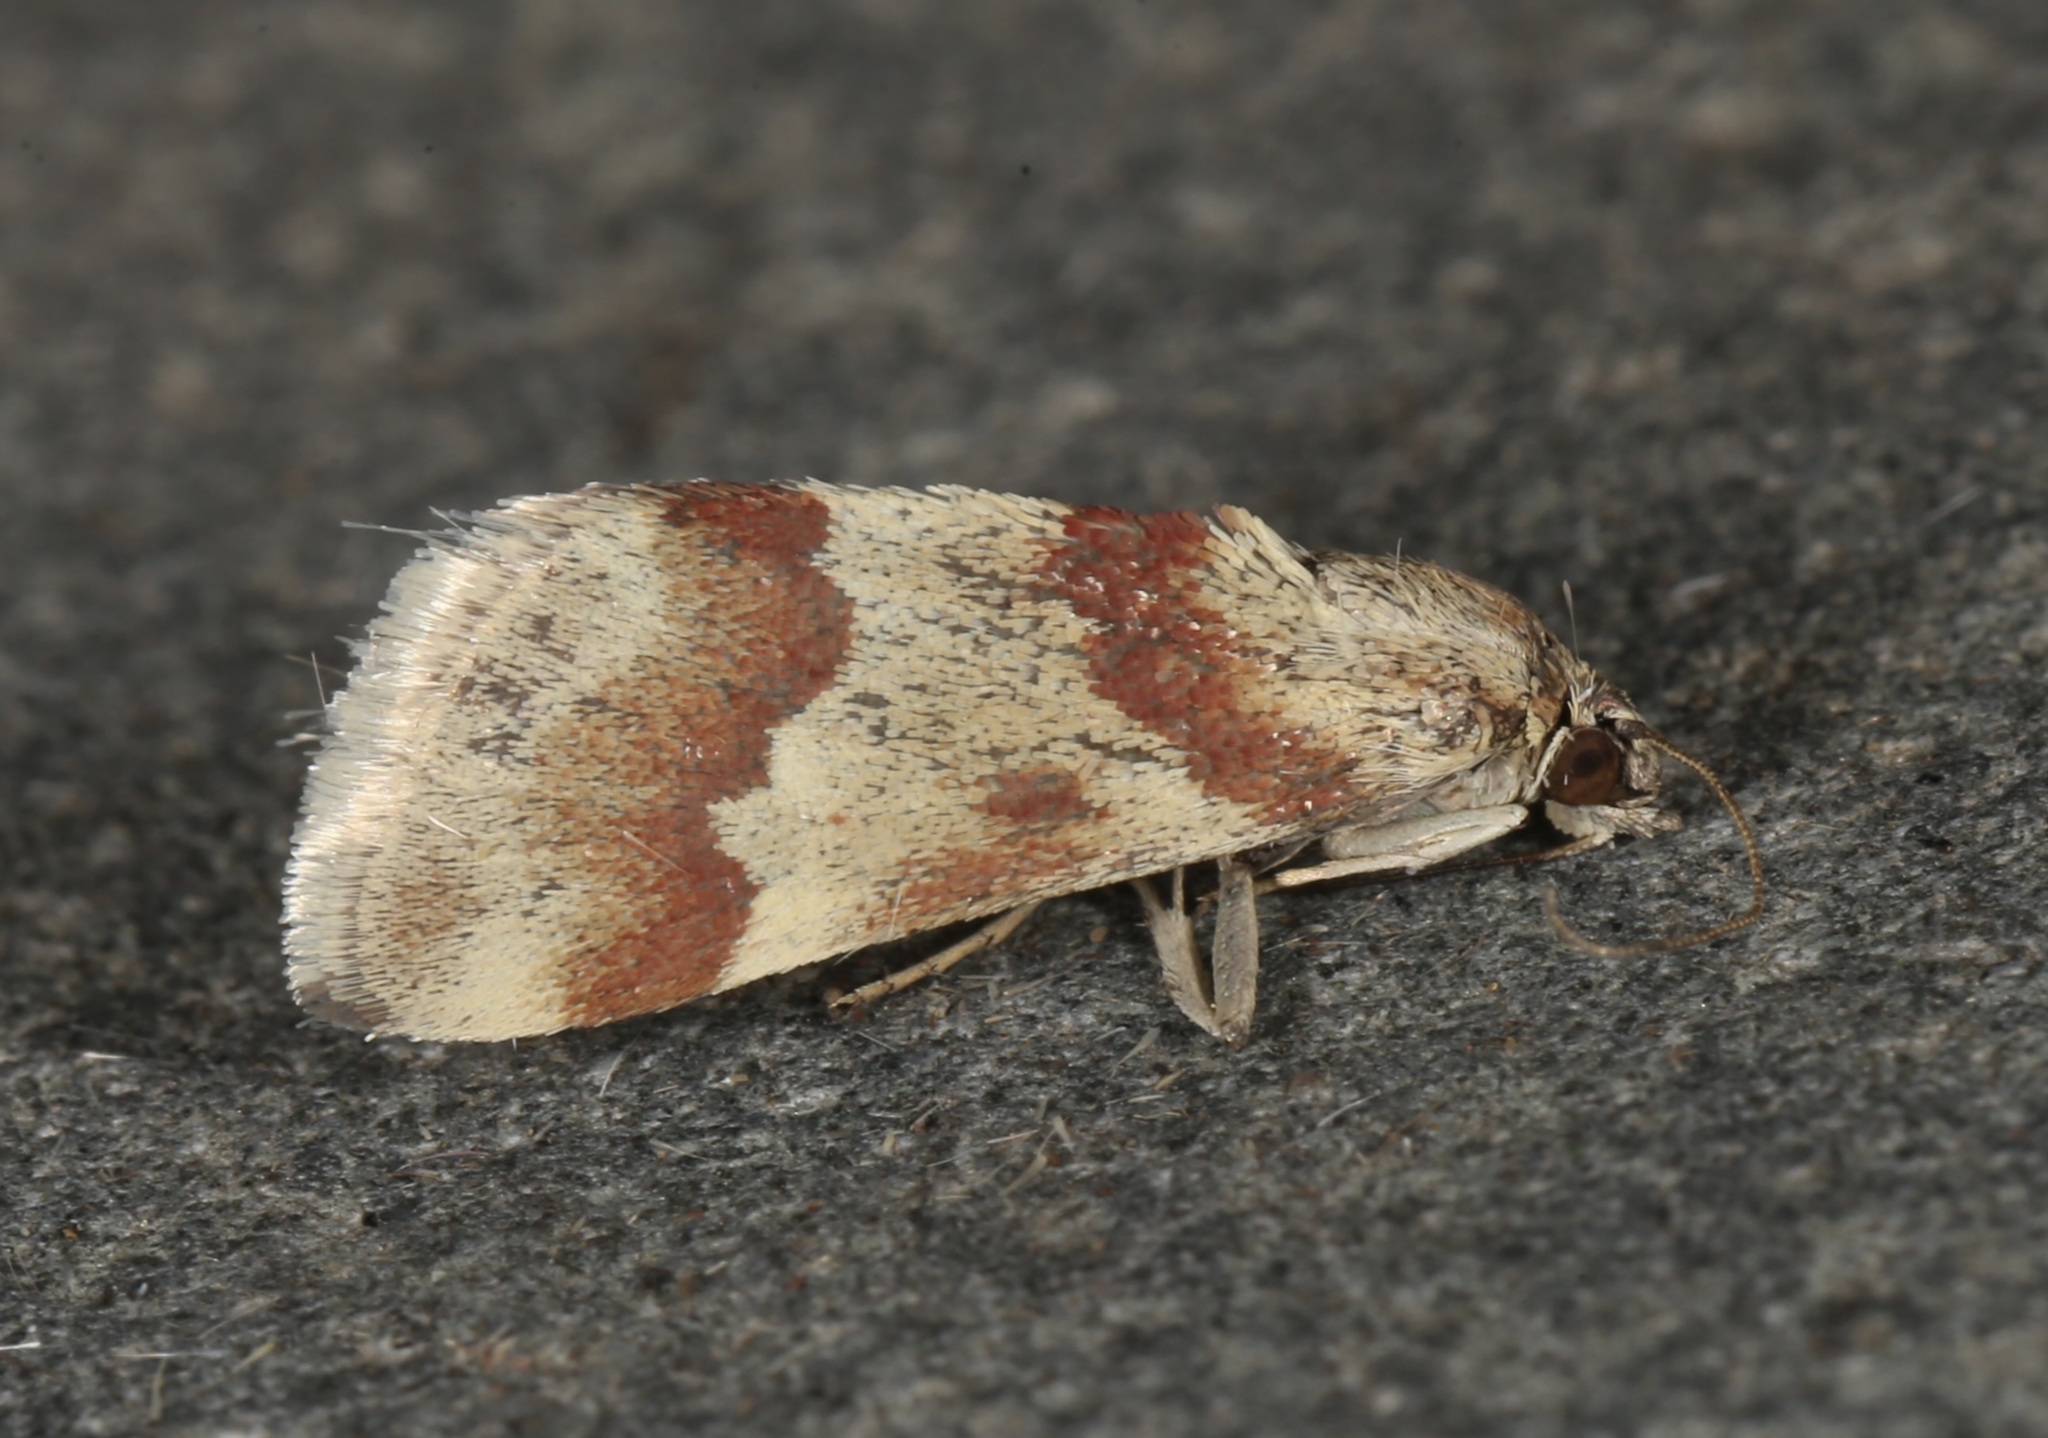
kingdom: Animalia
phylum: Arthropoda
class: Insecta
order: Lepidoptera
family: Crambidae
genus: Noctuelia
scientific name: Noctuelia Mimoschinia rufofascialis
